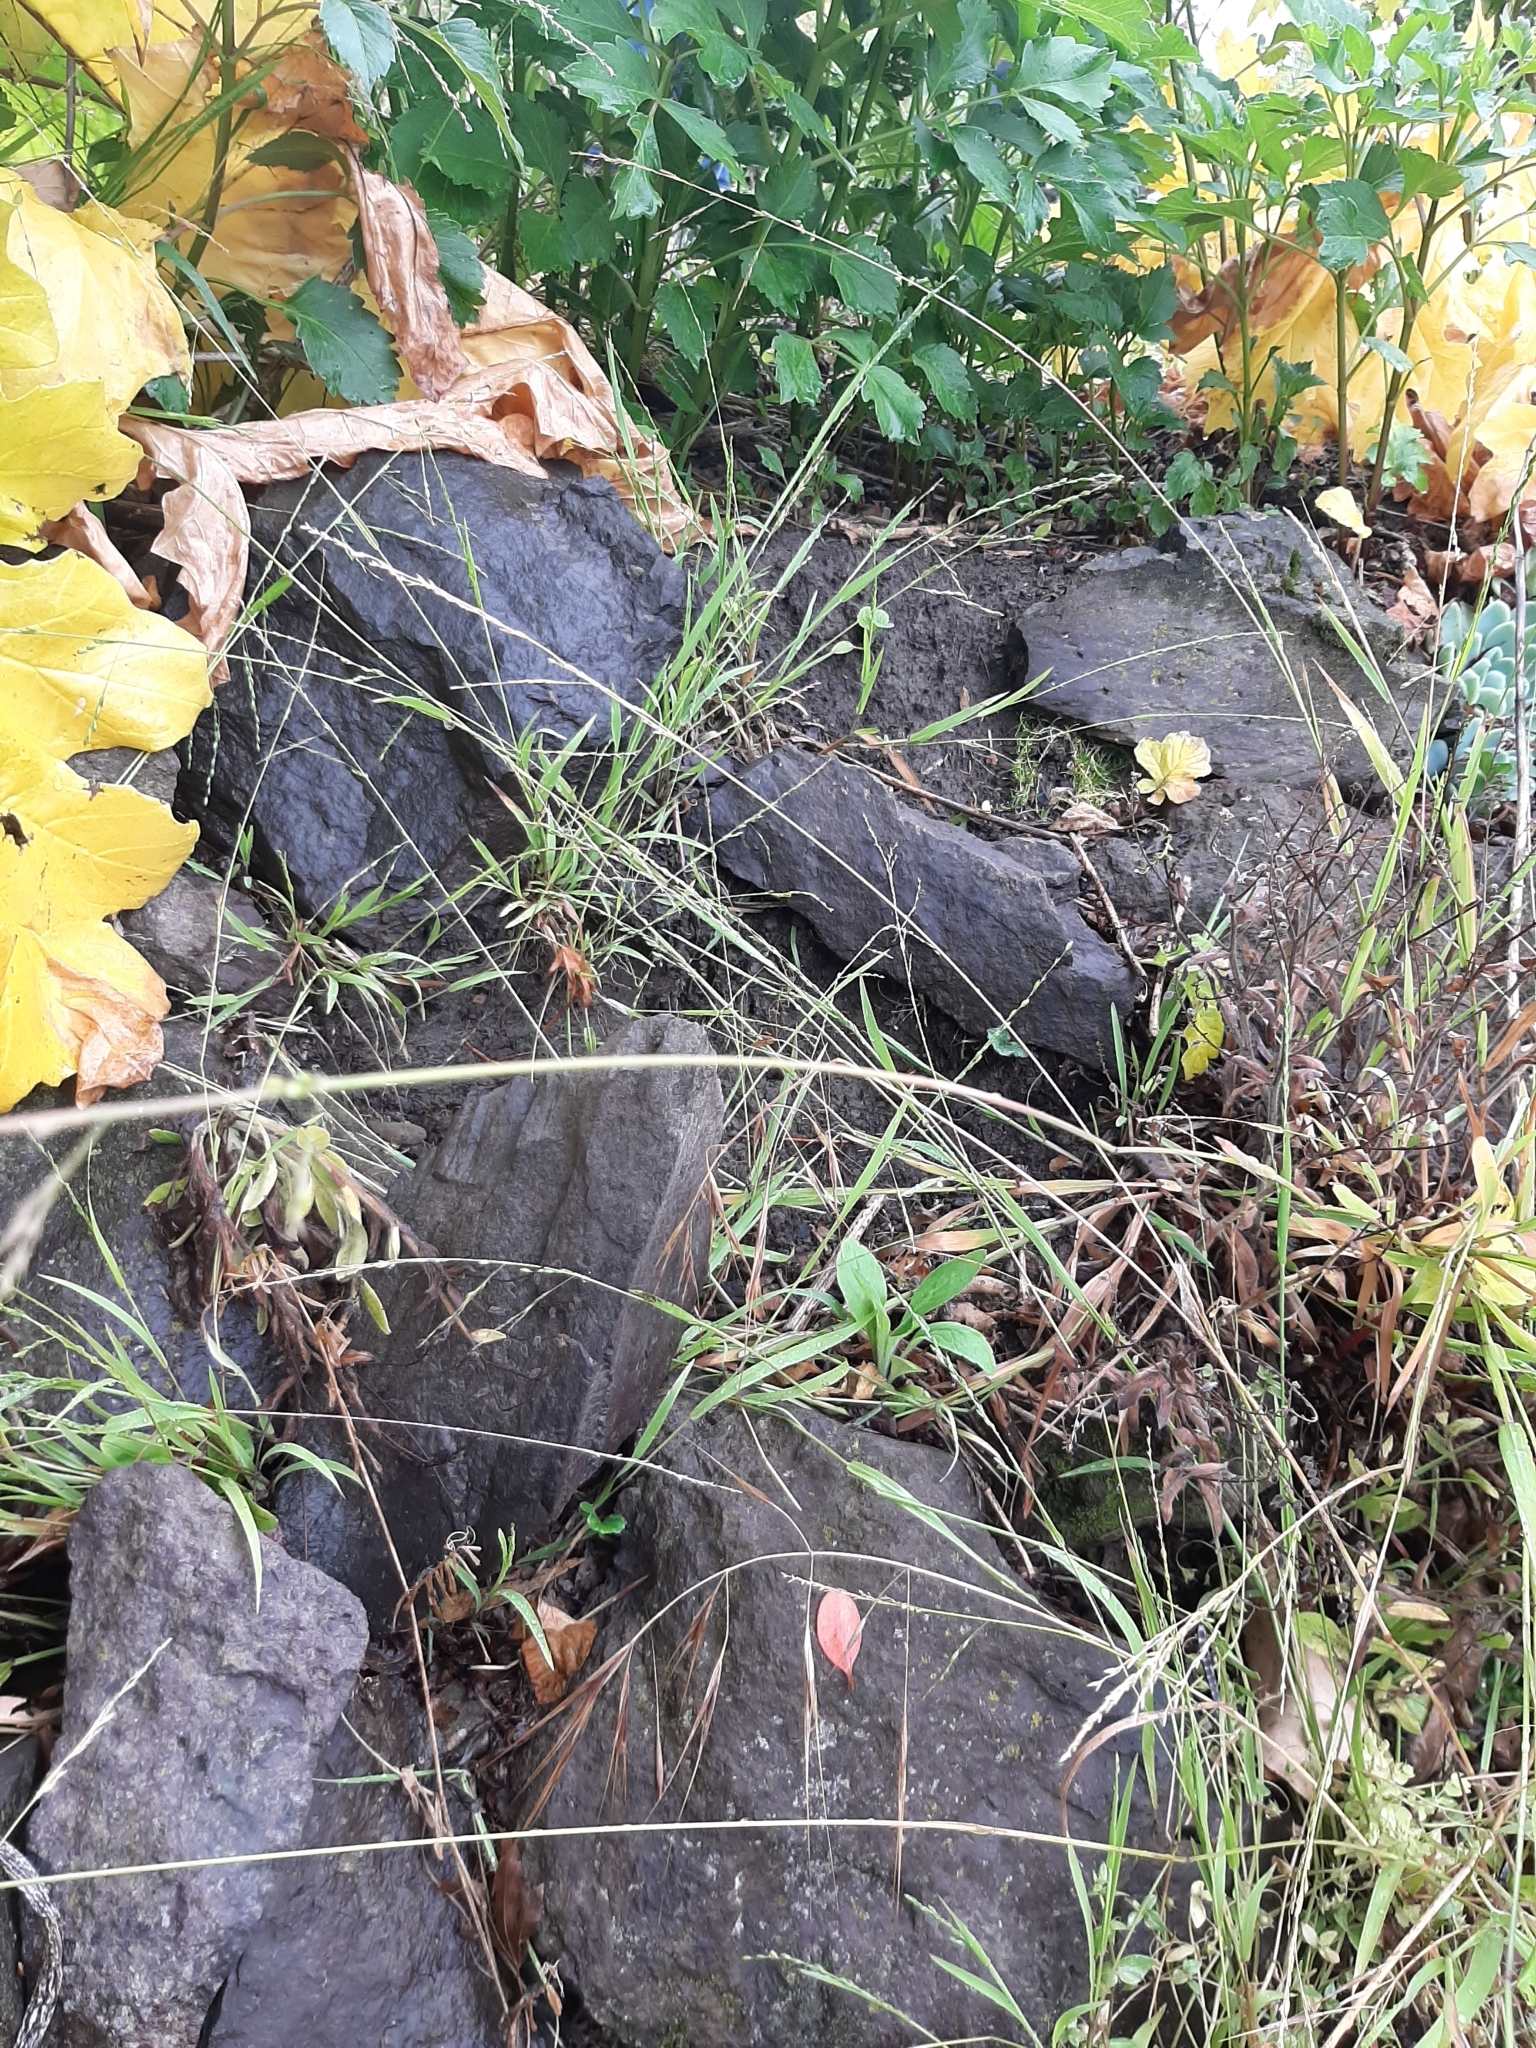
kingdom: Plantae
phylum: Tracheophyta
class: Liliopsida
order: Poales
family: Poaceae
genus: Ehrharta
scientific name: Ehrharta erecta
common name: Panic veldtgrass
